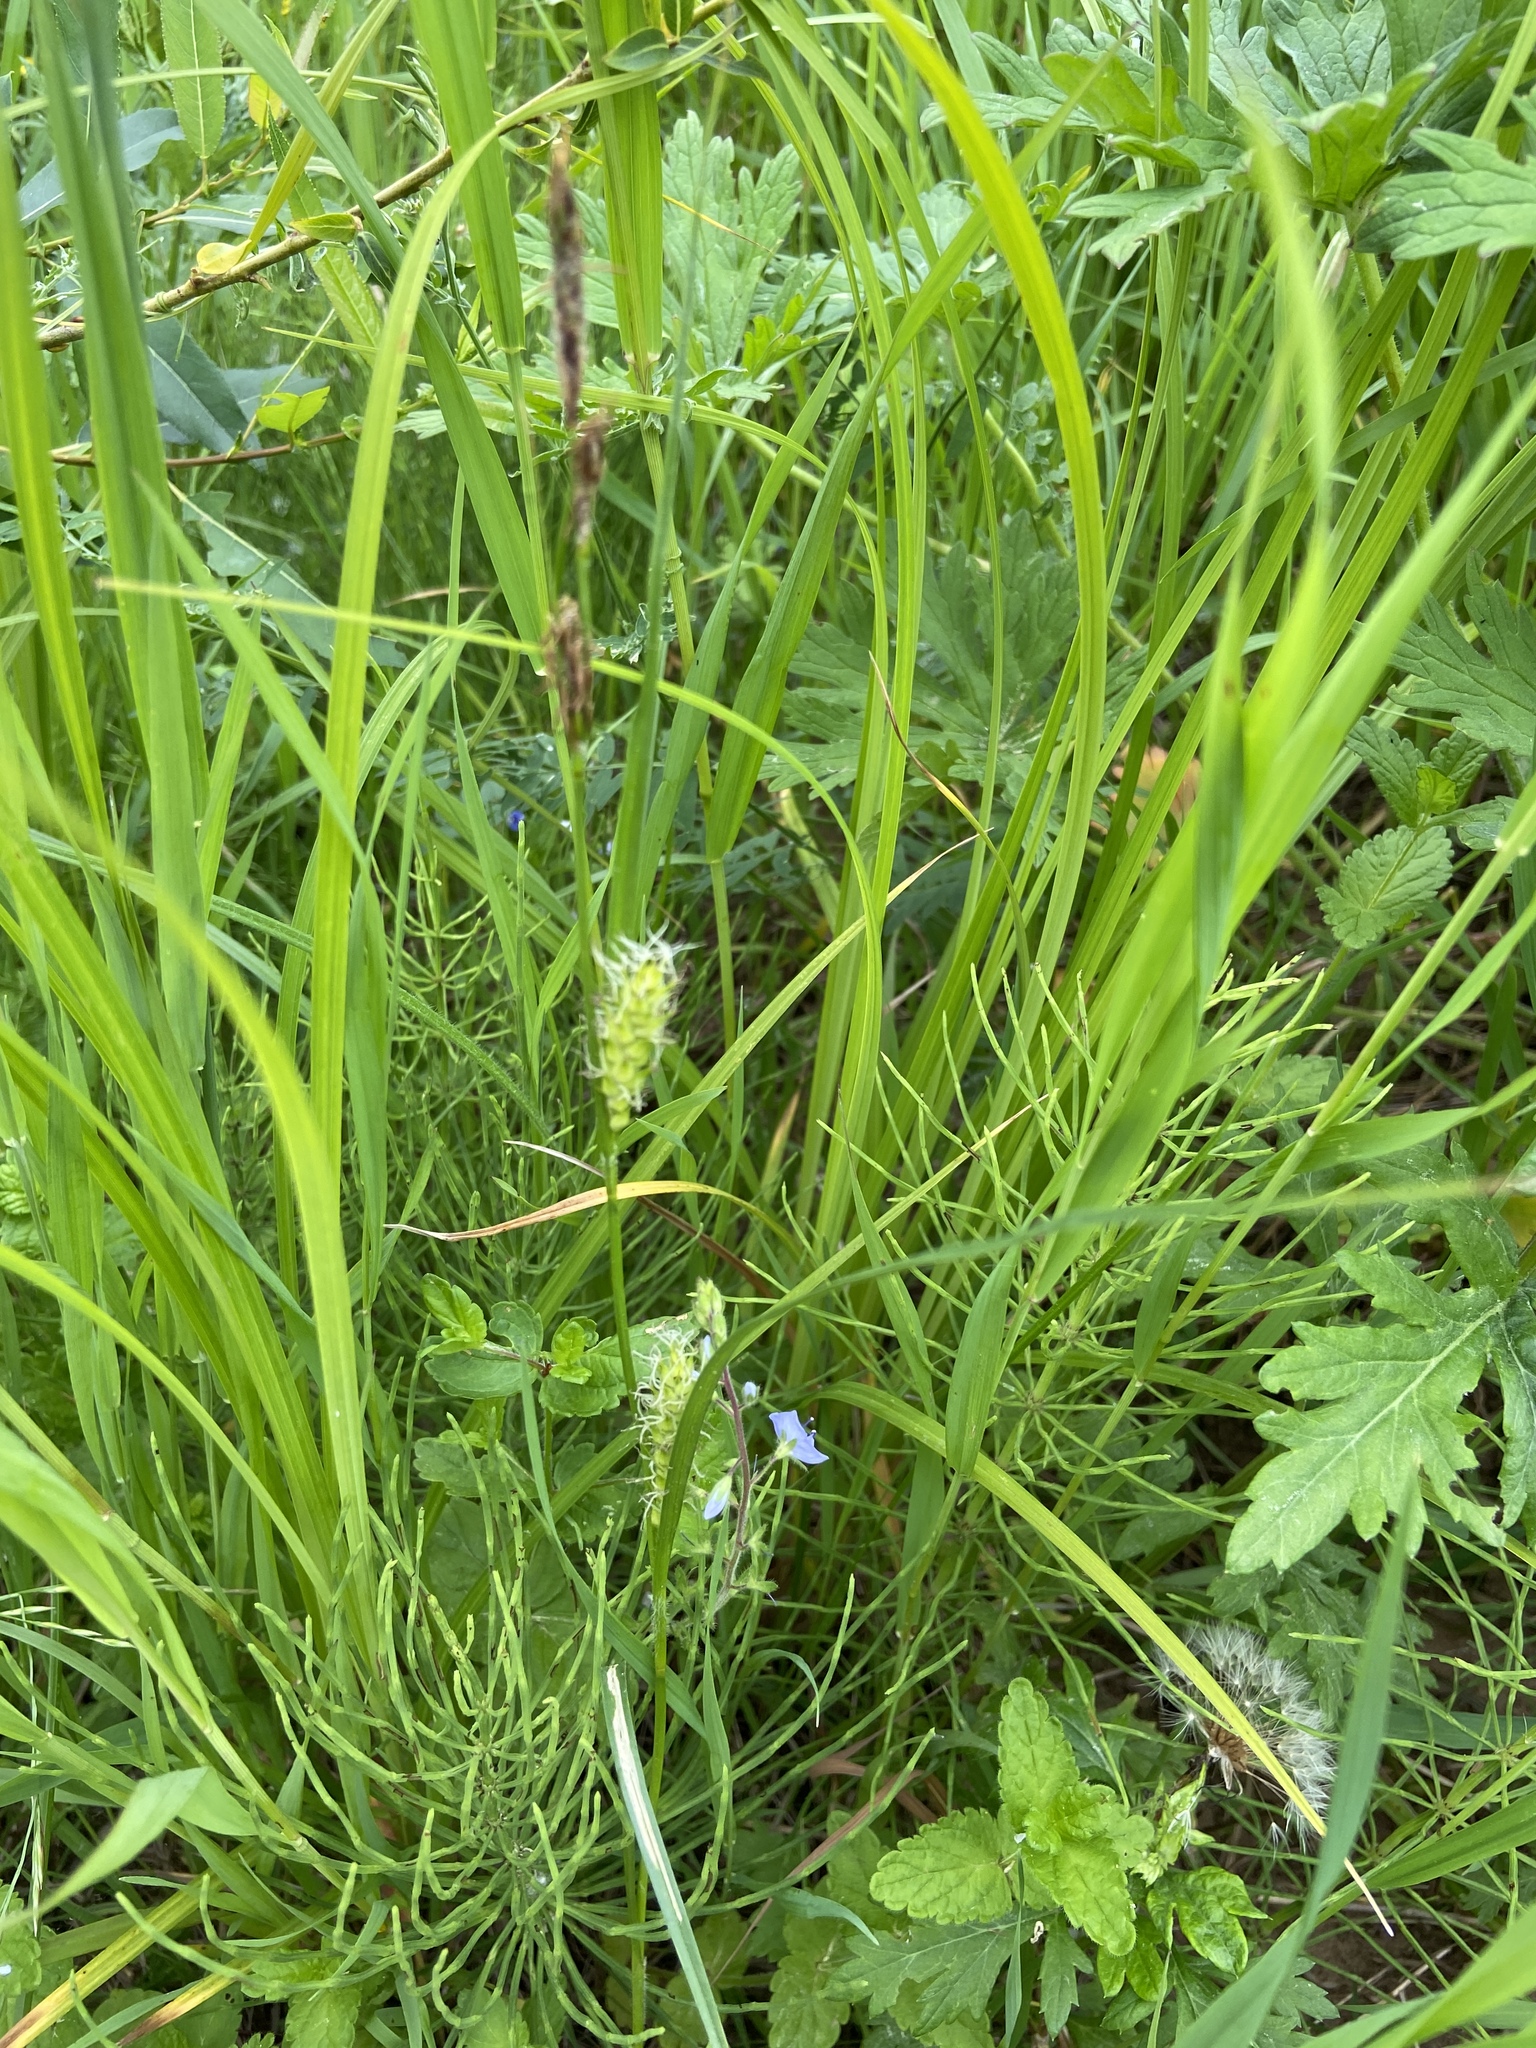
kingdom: Plantae
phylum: Tracheophyta
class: Liliopsida
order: Poales
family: Cyperaceae
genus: Carex
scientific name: Carex hirta
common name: Hairy sedge
